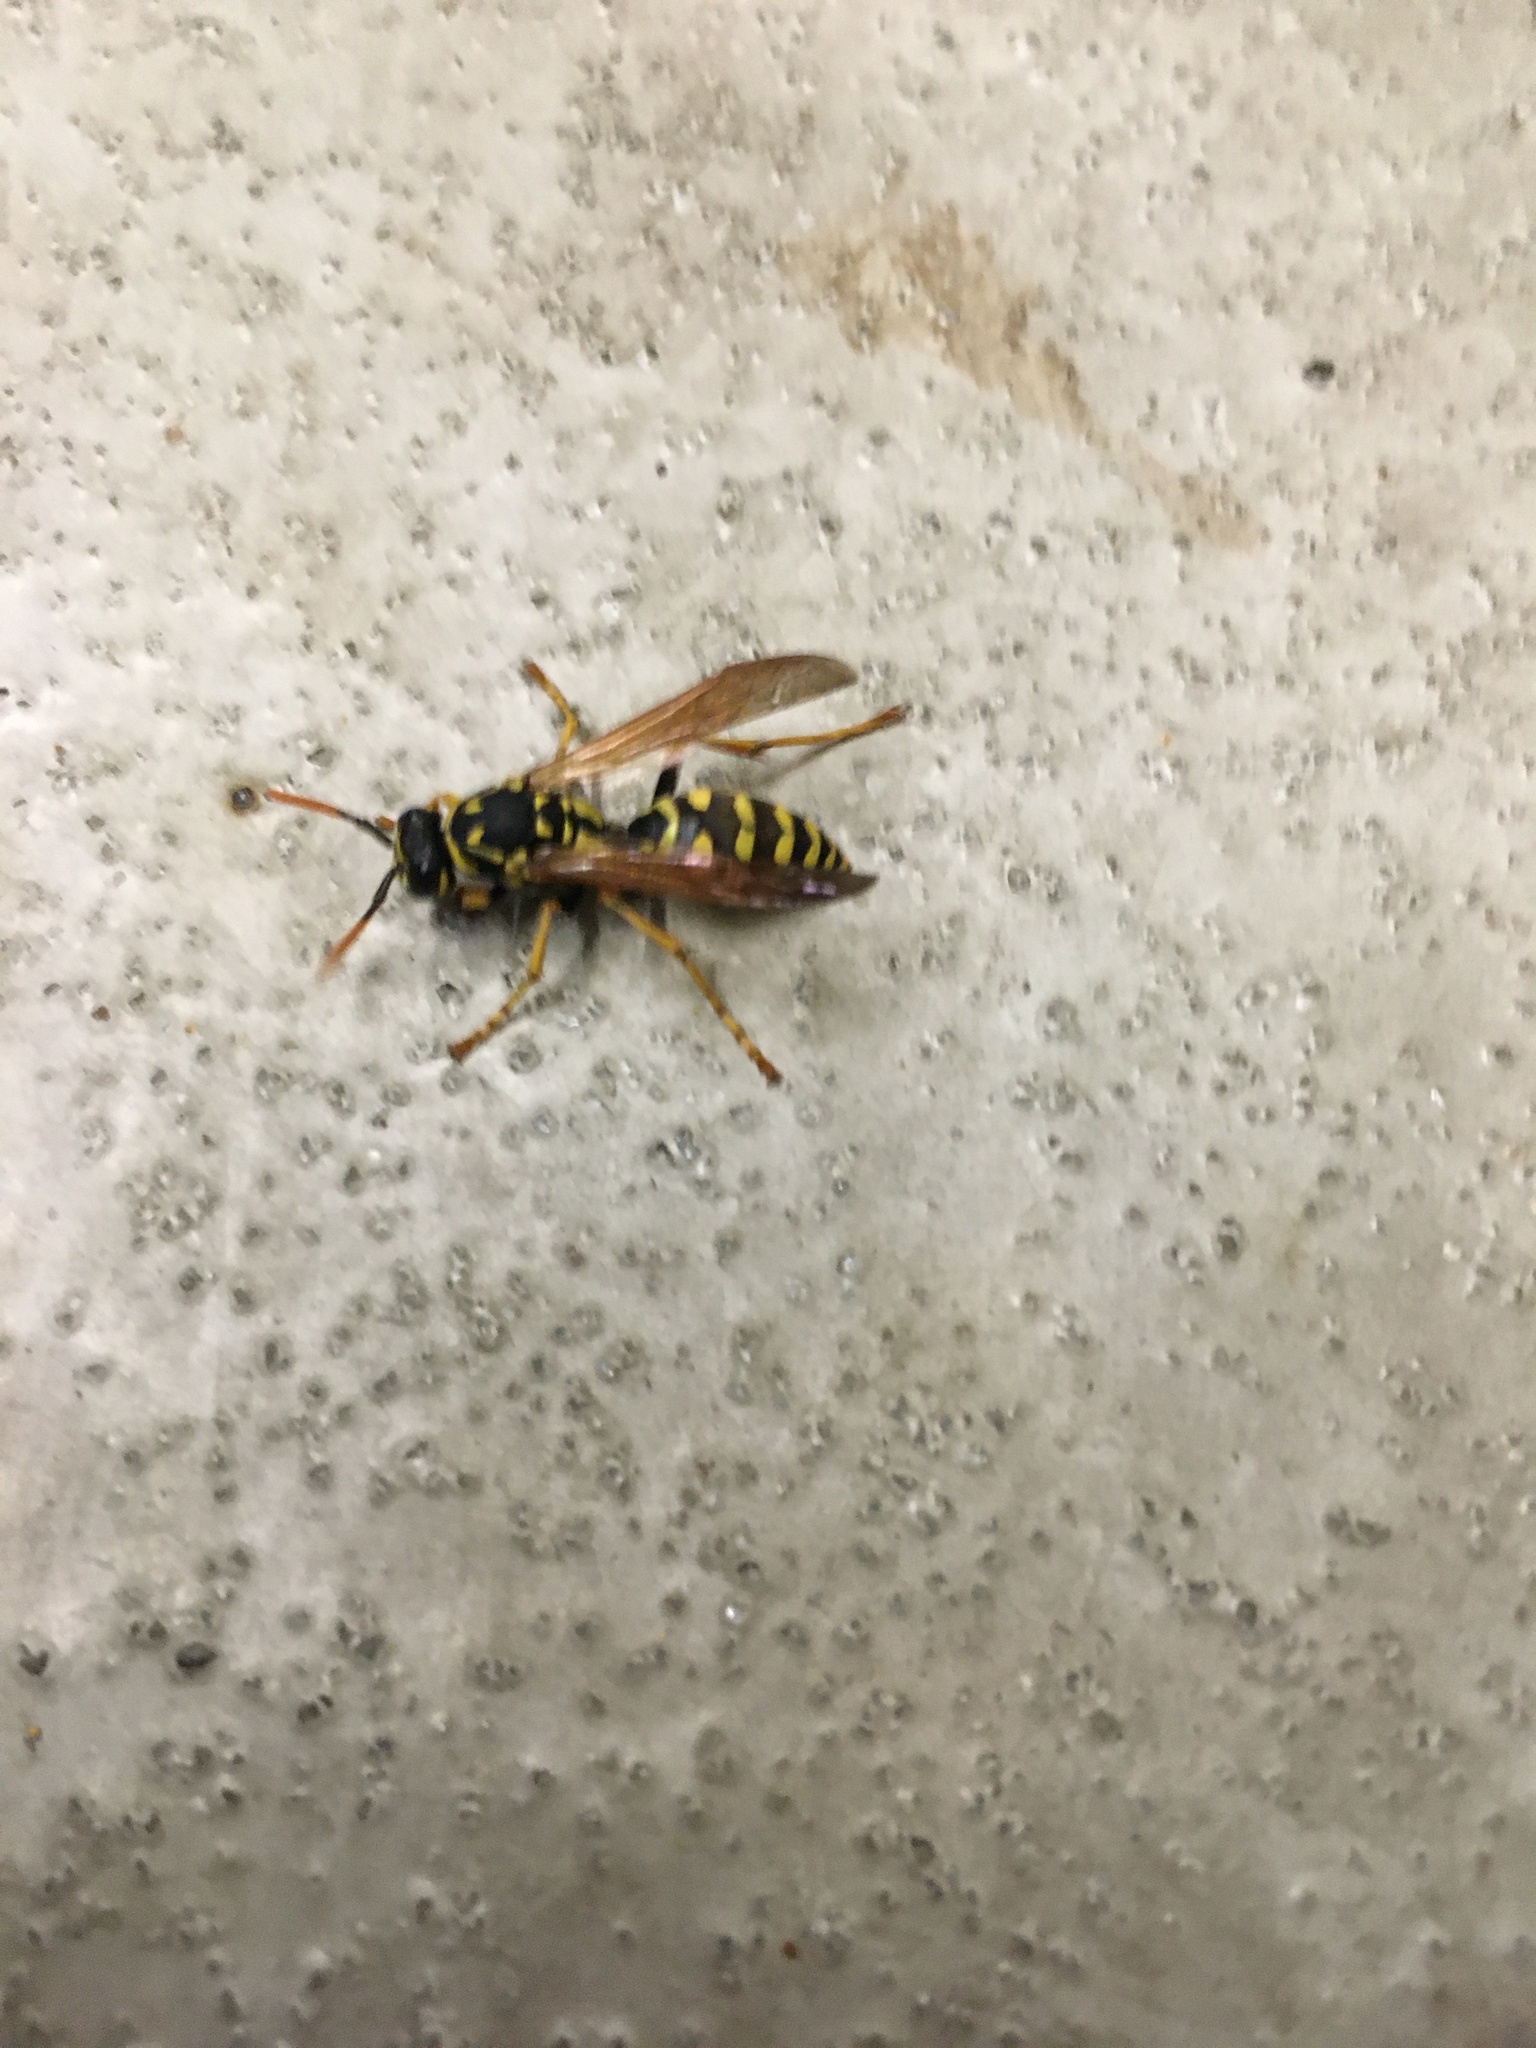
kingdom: Animalia
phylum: Arthropoda
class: Insecta
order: Hymenoptera
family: Eumenidae
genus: Polistes
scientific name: Polistes dominula
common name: Paper wasp
